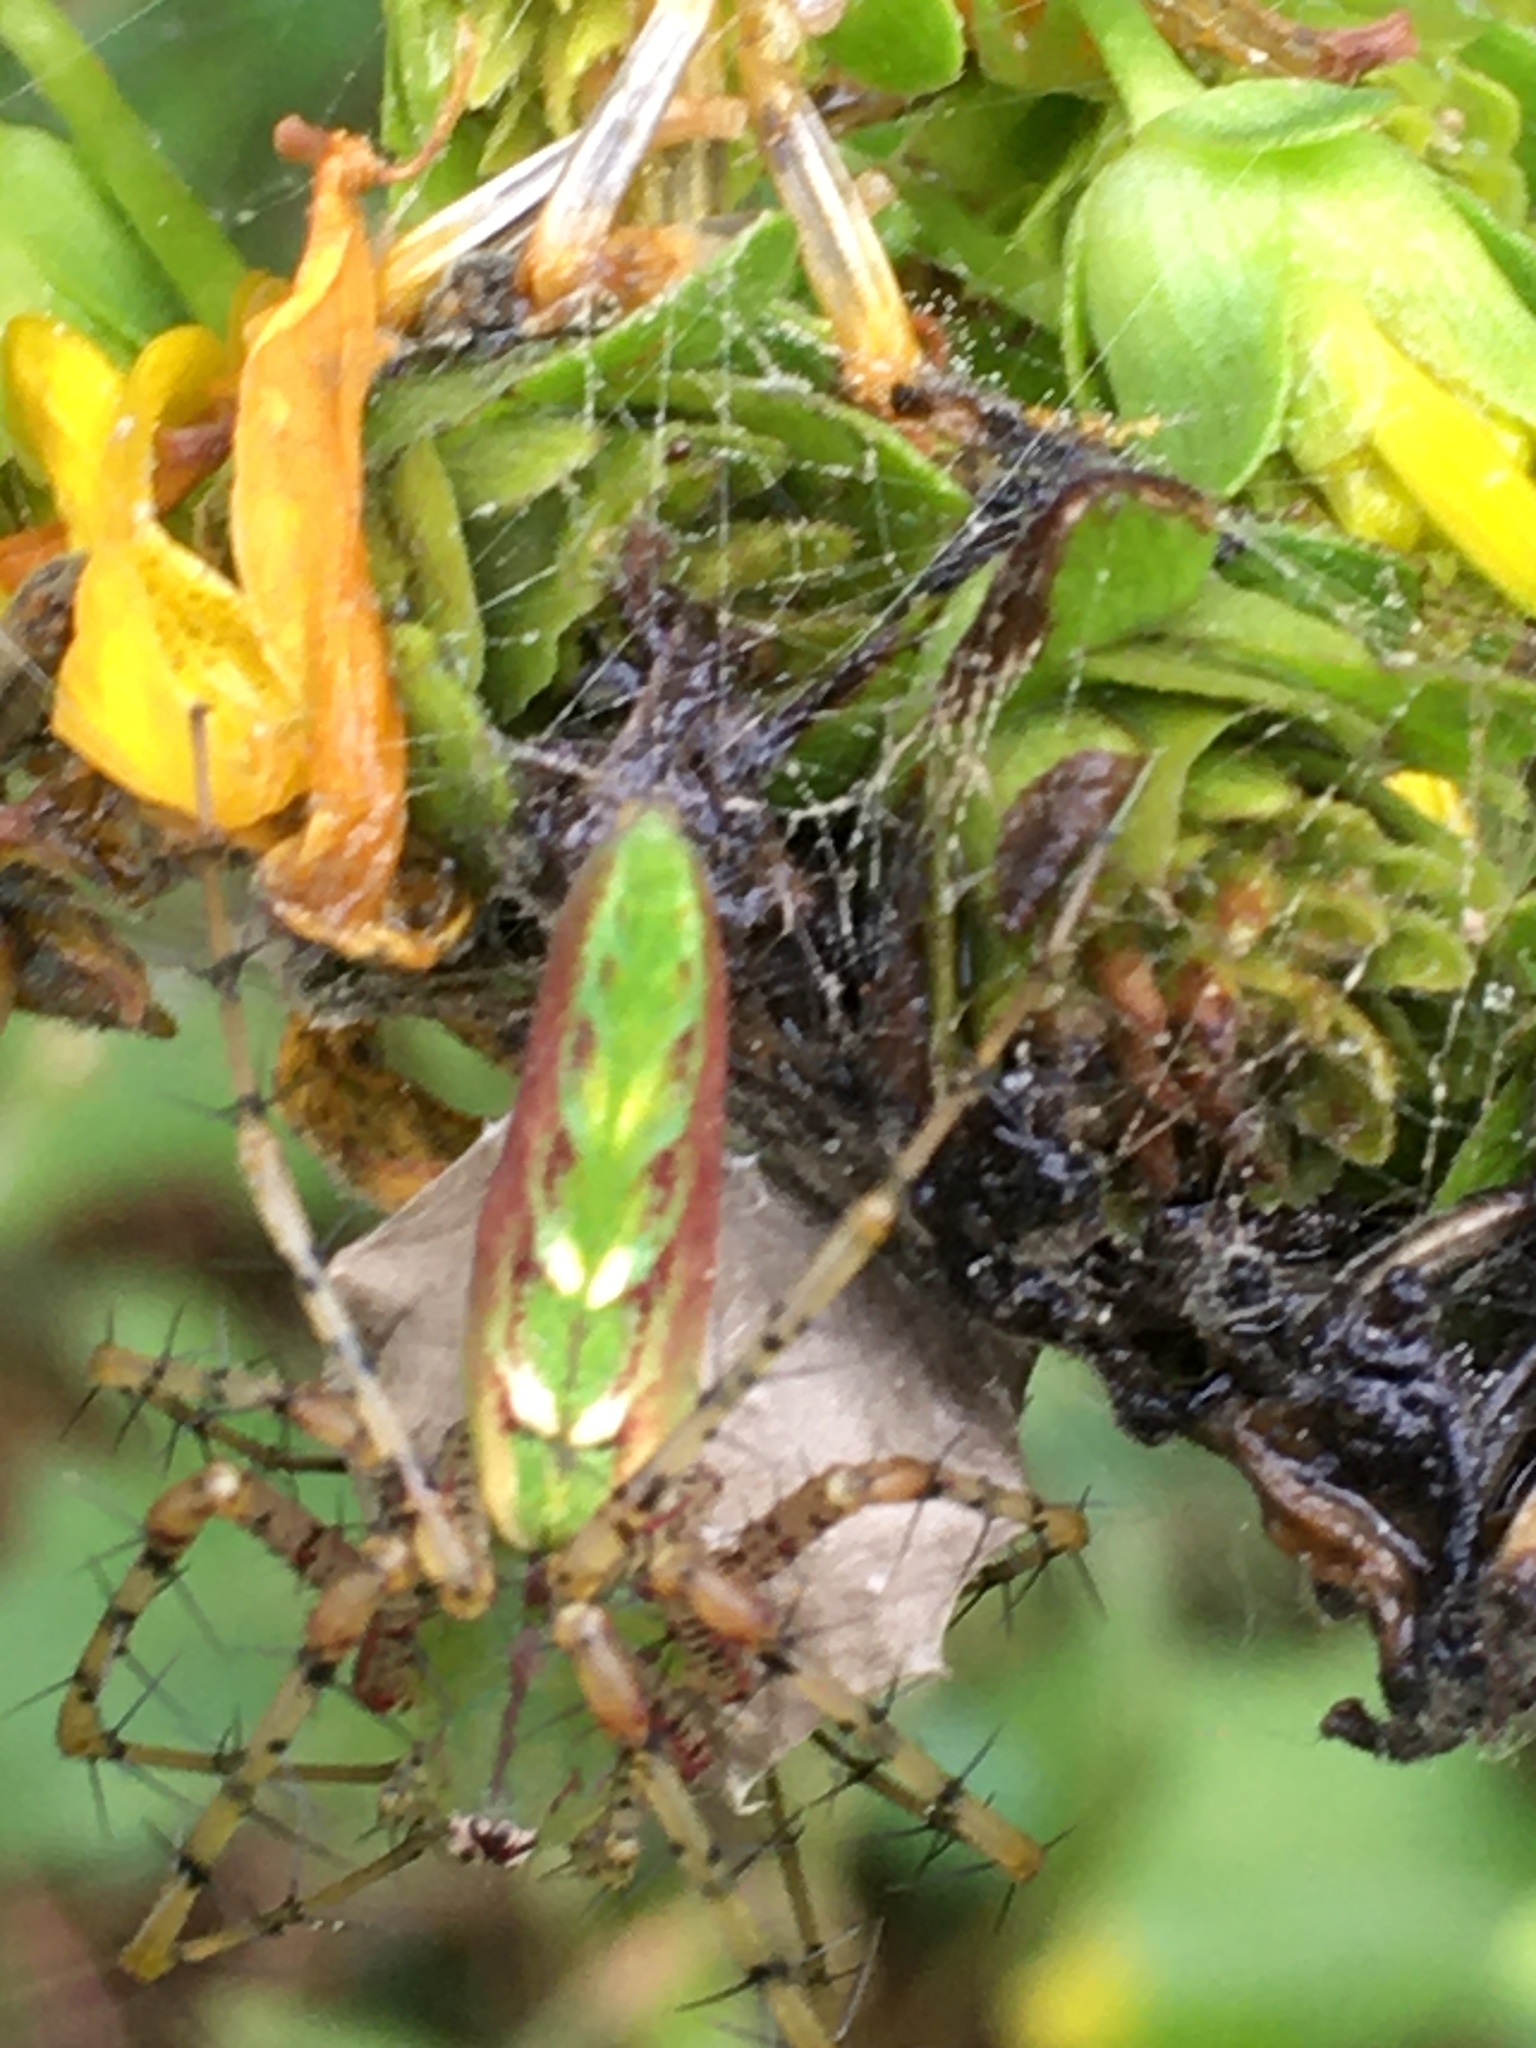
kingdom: Animalia
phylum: Arthropoda
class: Arachnida
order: Araneae
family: Oxyopidae
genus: Peucetia
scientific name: Peucetia viridans
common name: Lynx spiders
